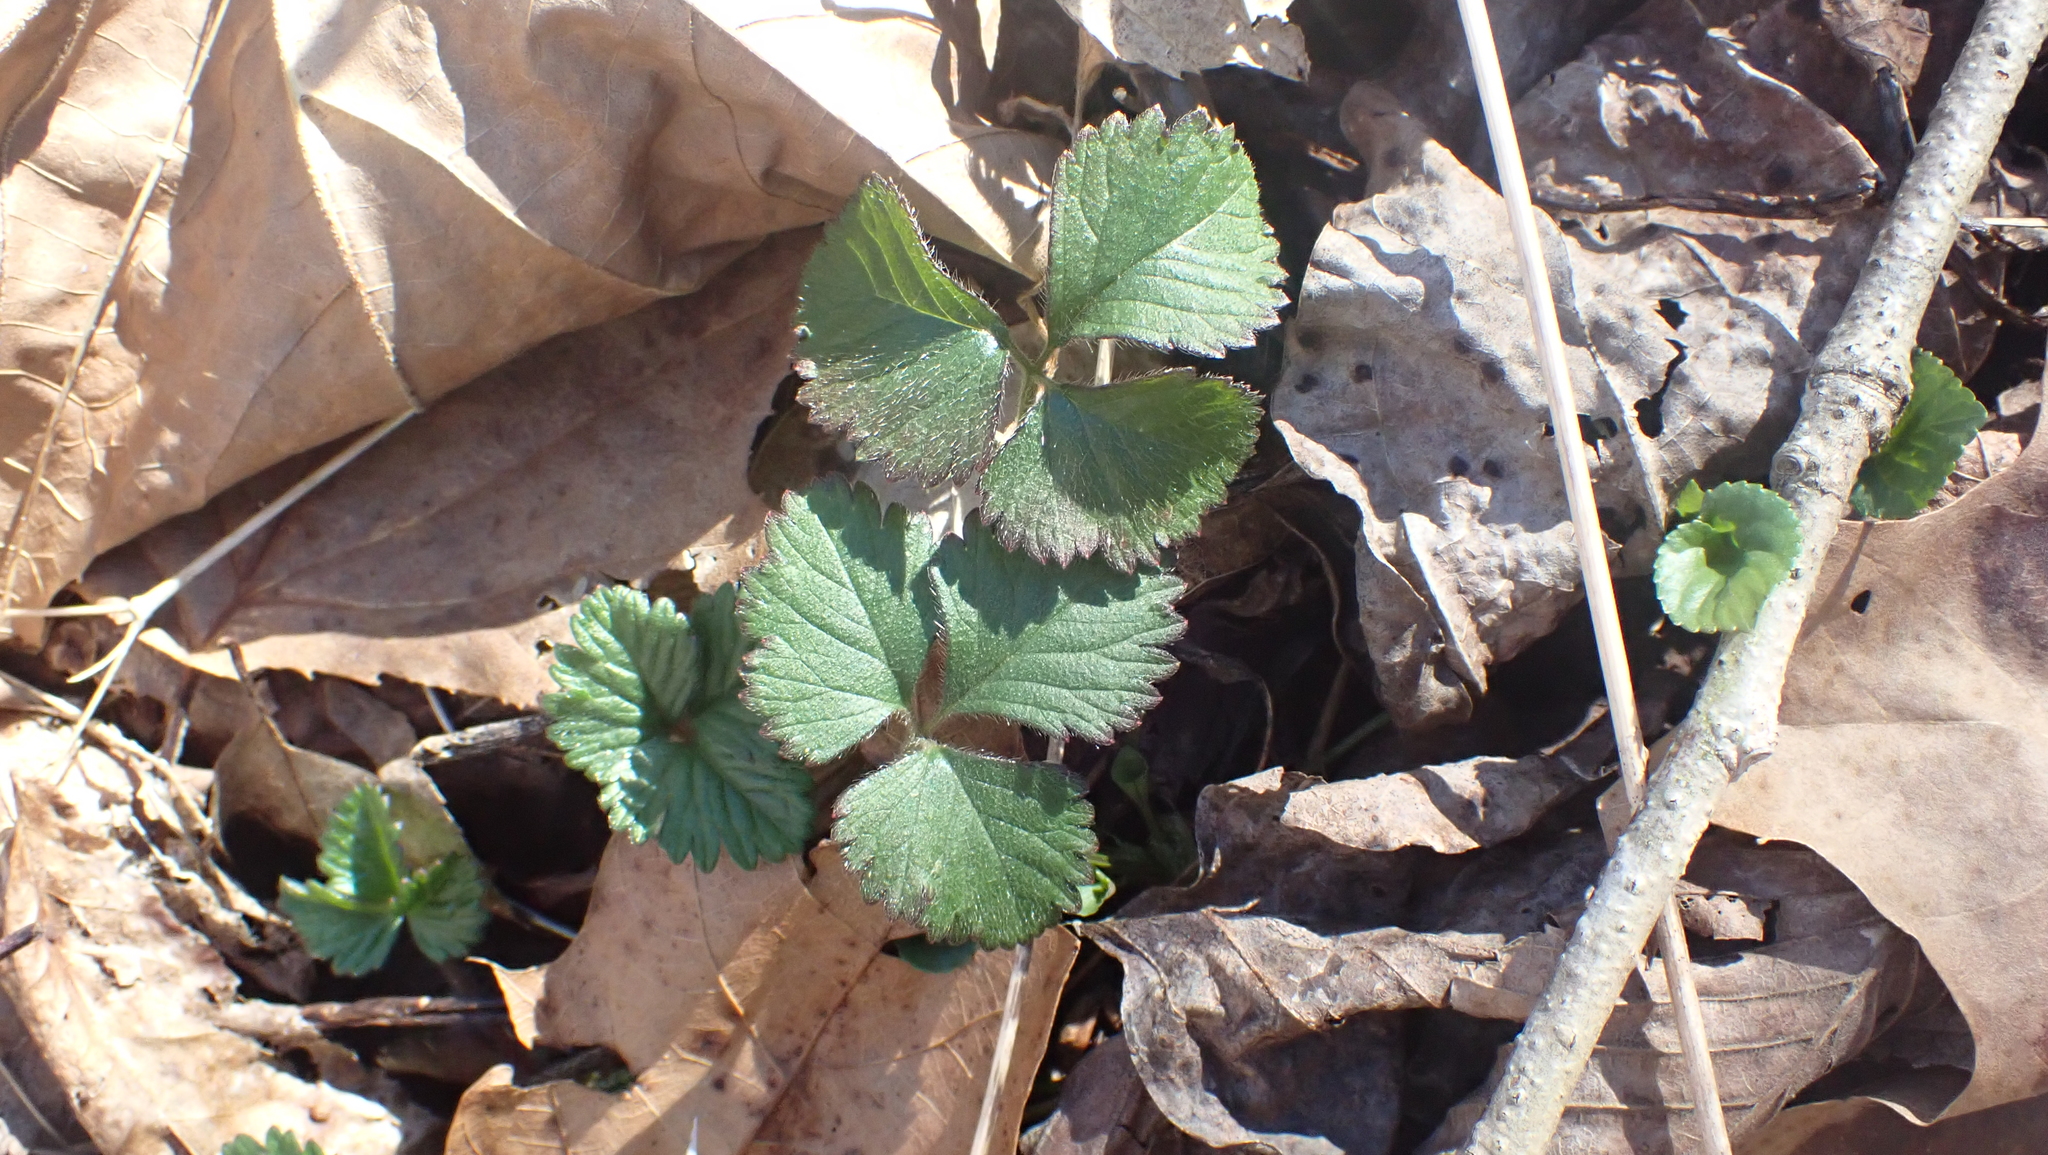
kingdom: Plantae
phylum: Tracheophyta
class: Magnoliopsida
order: Rosales
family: Rosaceae
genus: Potentilla
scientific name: Potentilla indica
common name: Yellow-flowered strawberry
